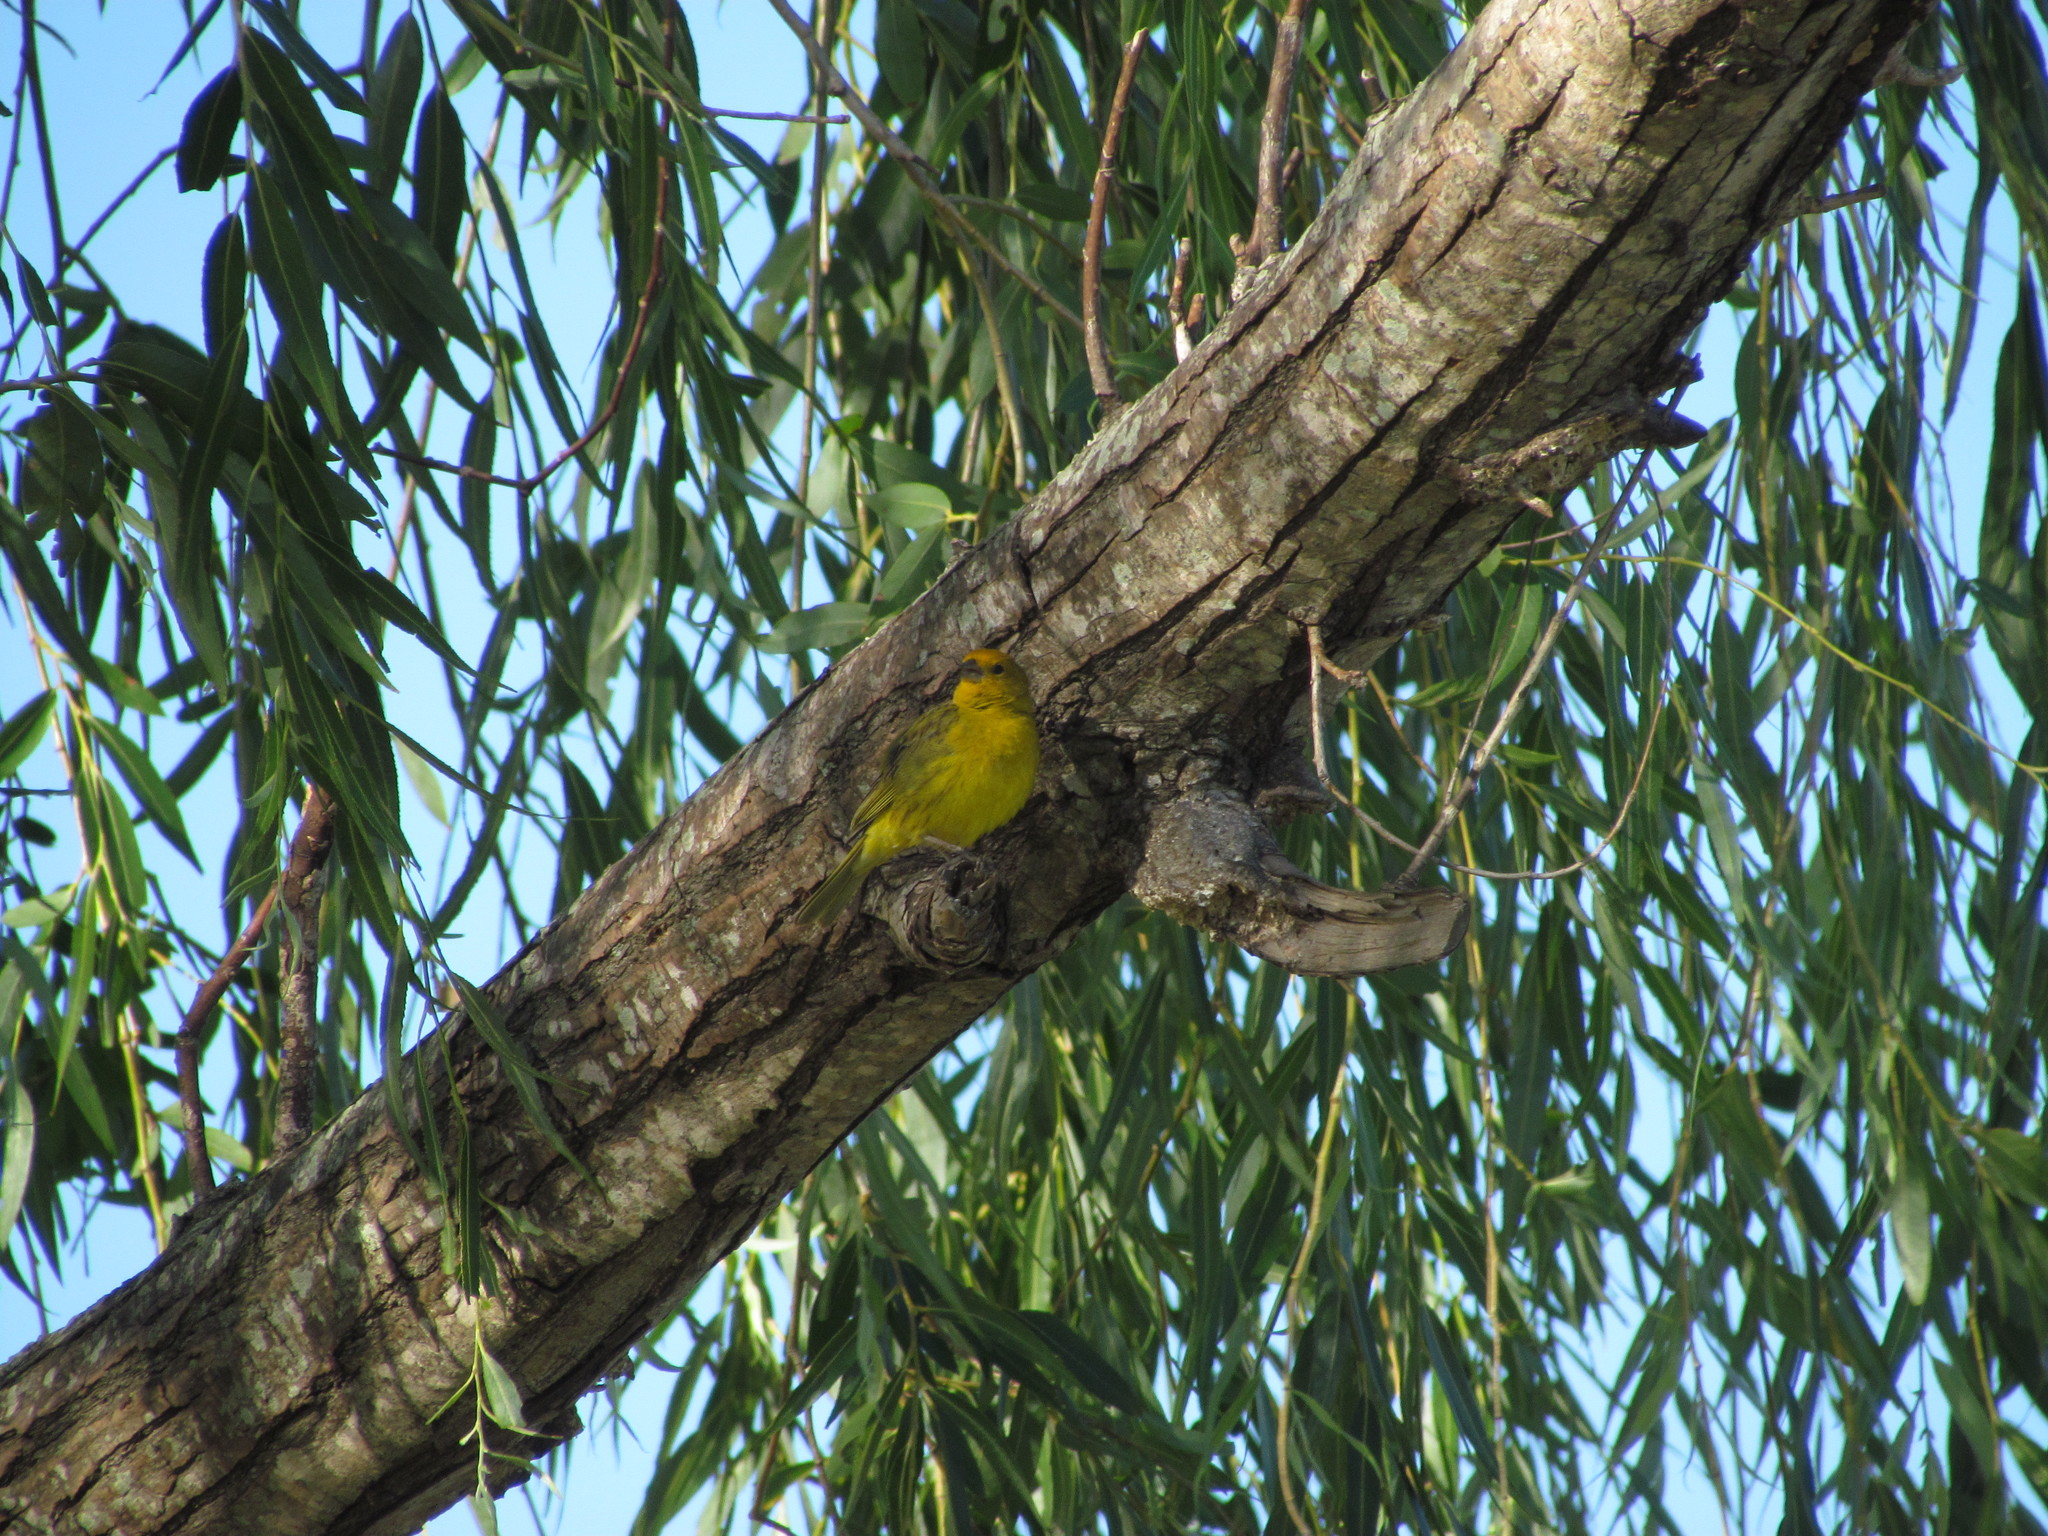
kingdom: Animalia
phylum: Chordata
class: Aves
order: Passeriformes
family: Thraupidae
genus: Sicalis
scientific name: Sicalis flaveola
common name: Saffron finch
